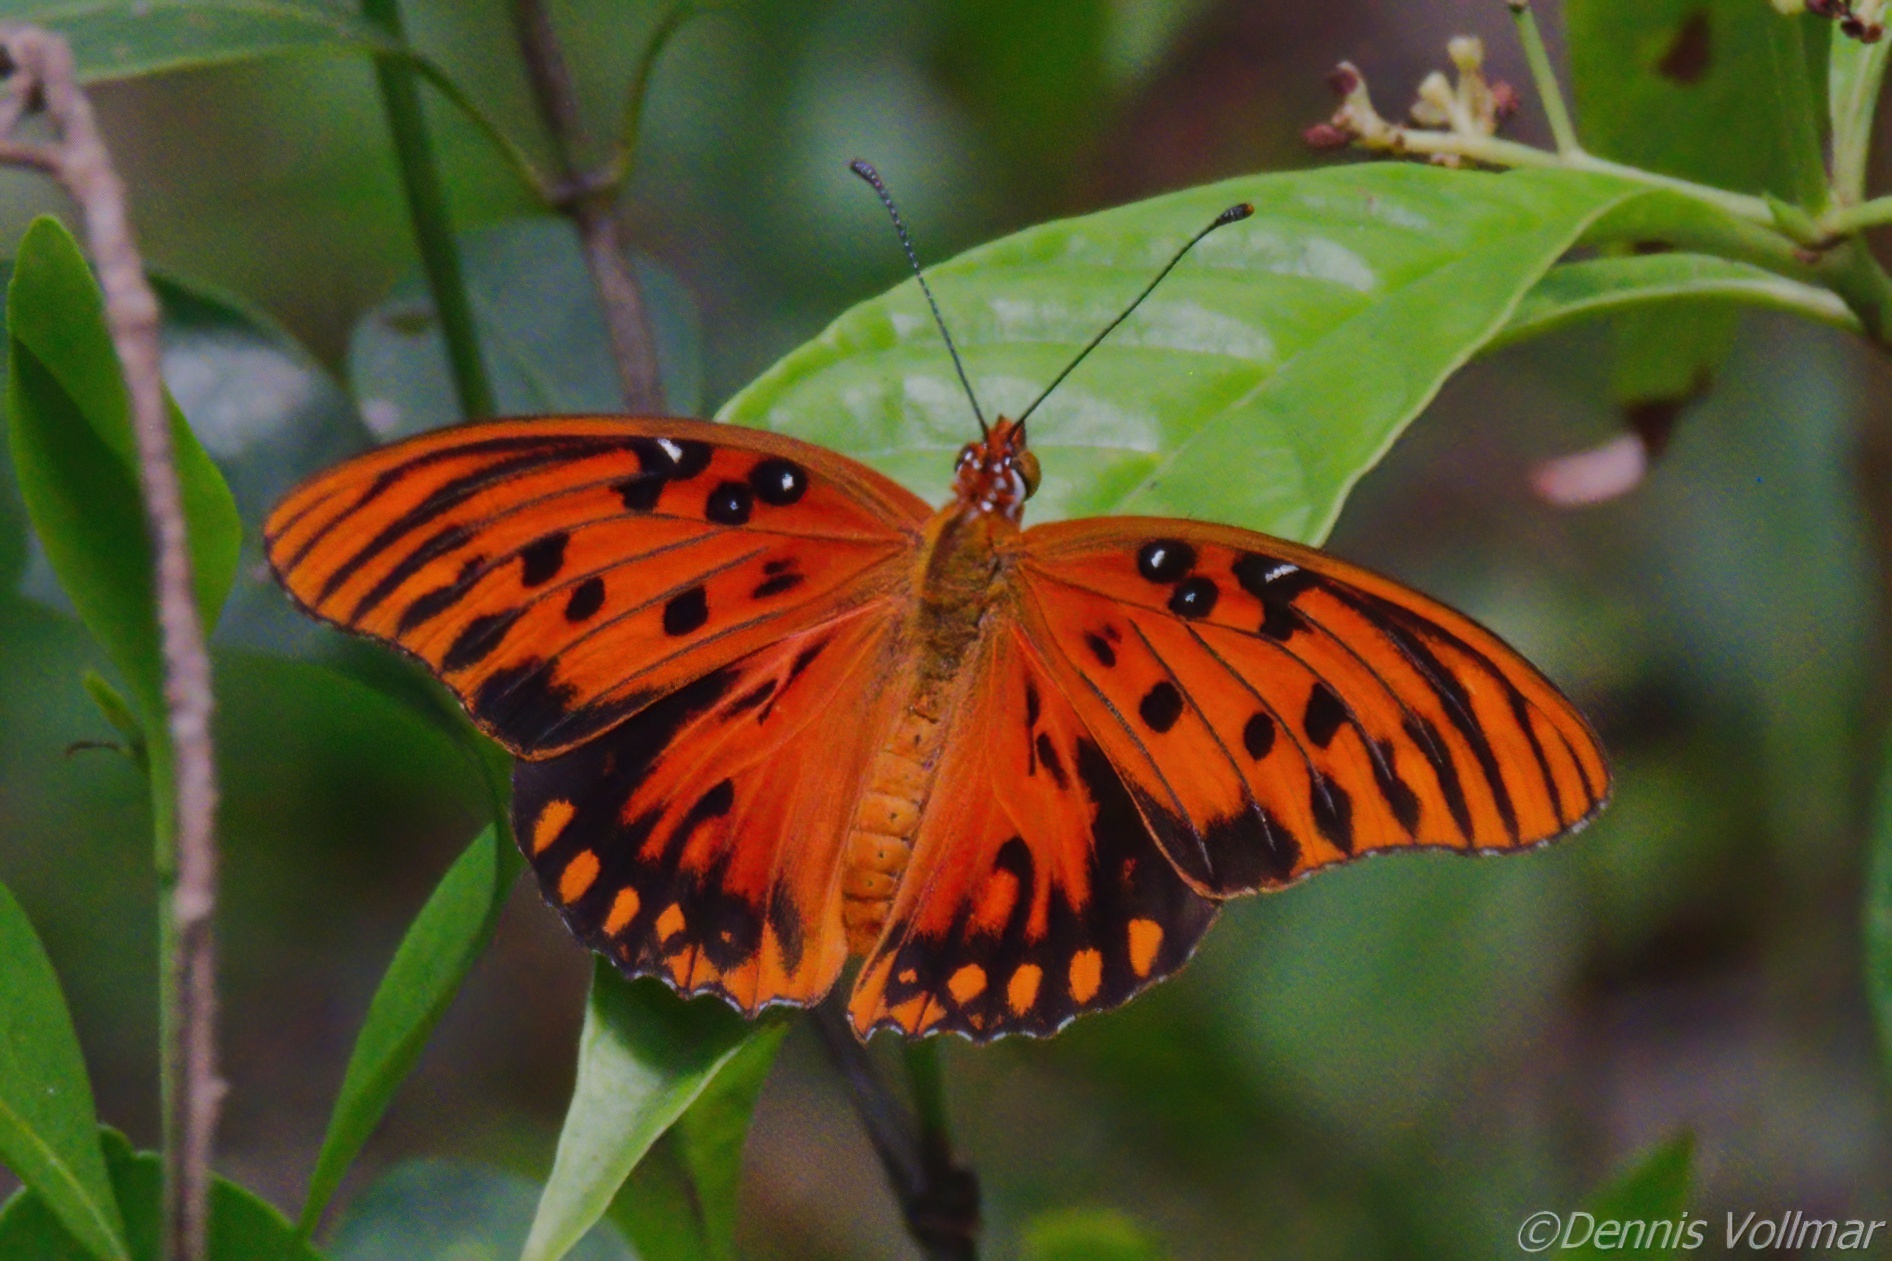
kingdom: Animalia
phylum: Arthropoda
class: Insecta
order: Lepidoptera
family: Nymphalidae
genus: Dione
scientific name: Dione vanillae
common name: Gulf fritillary
